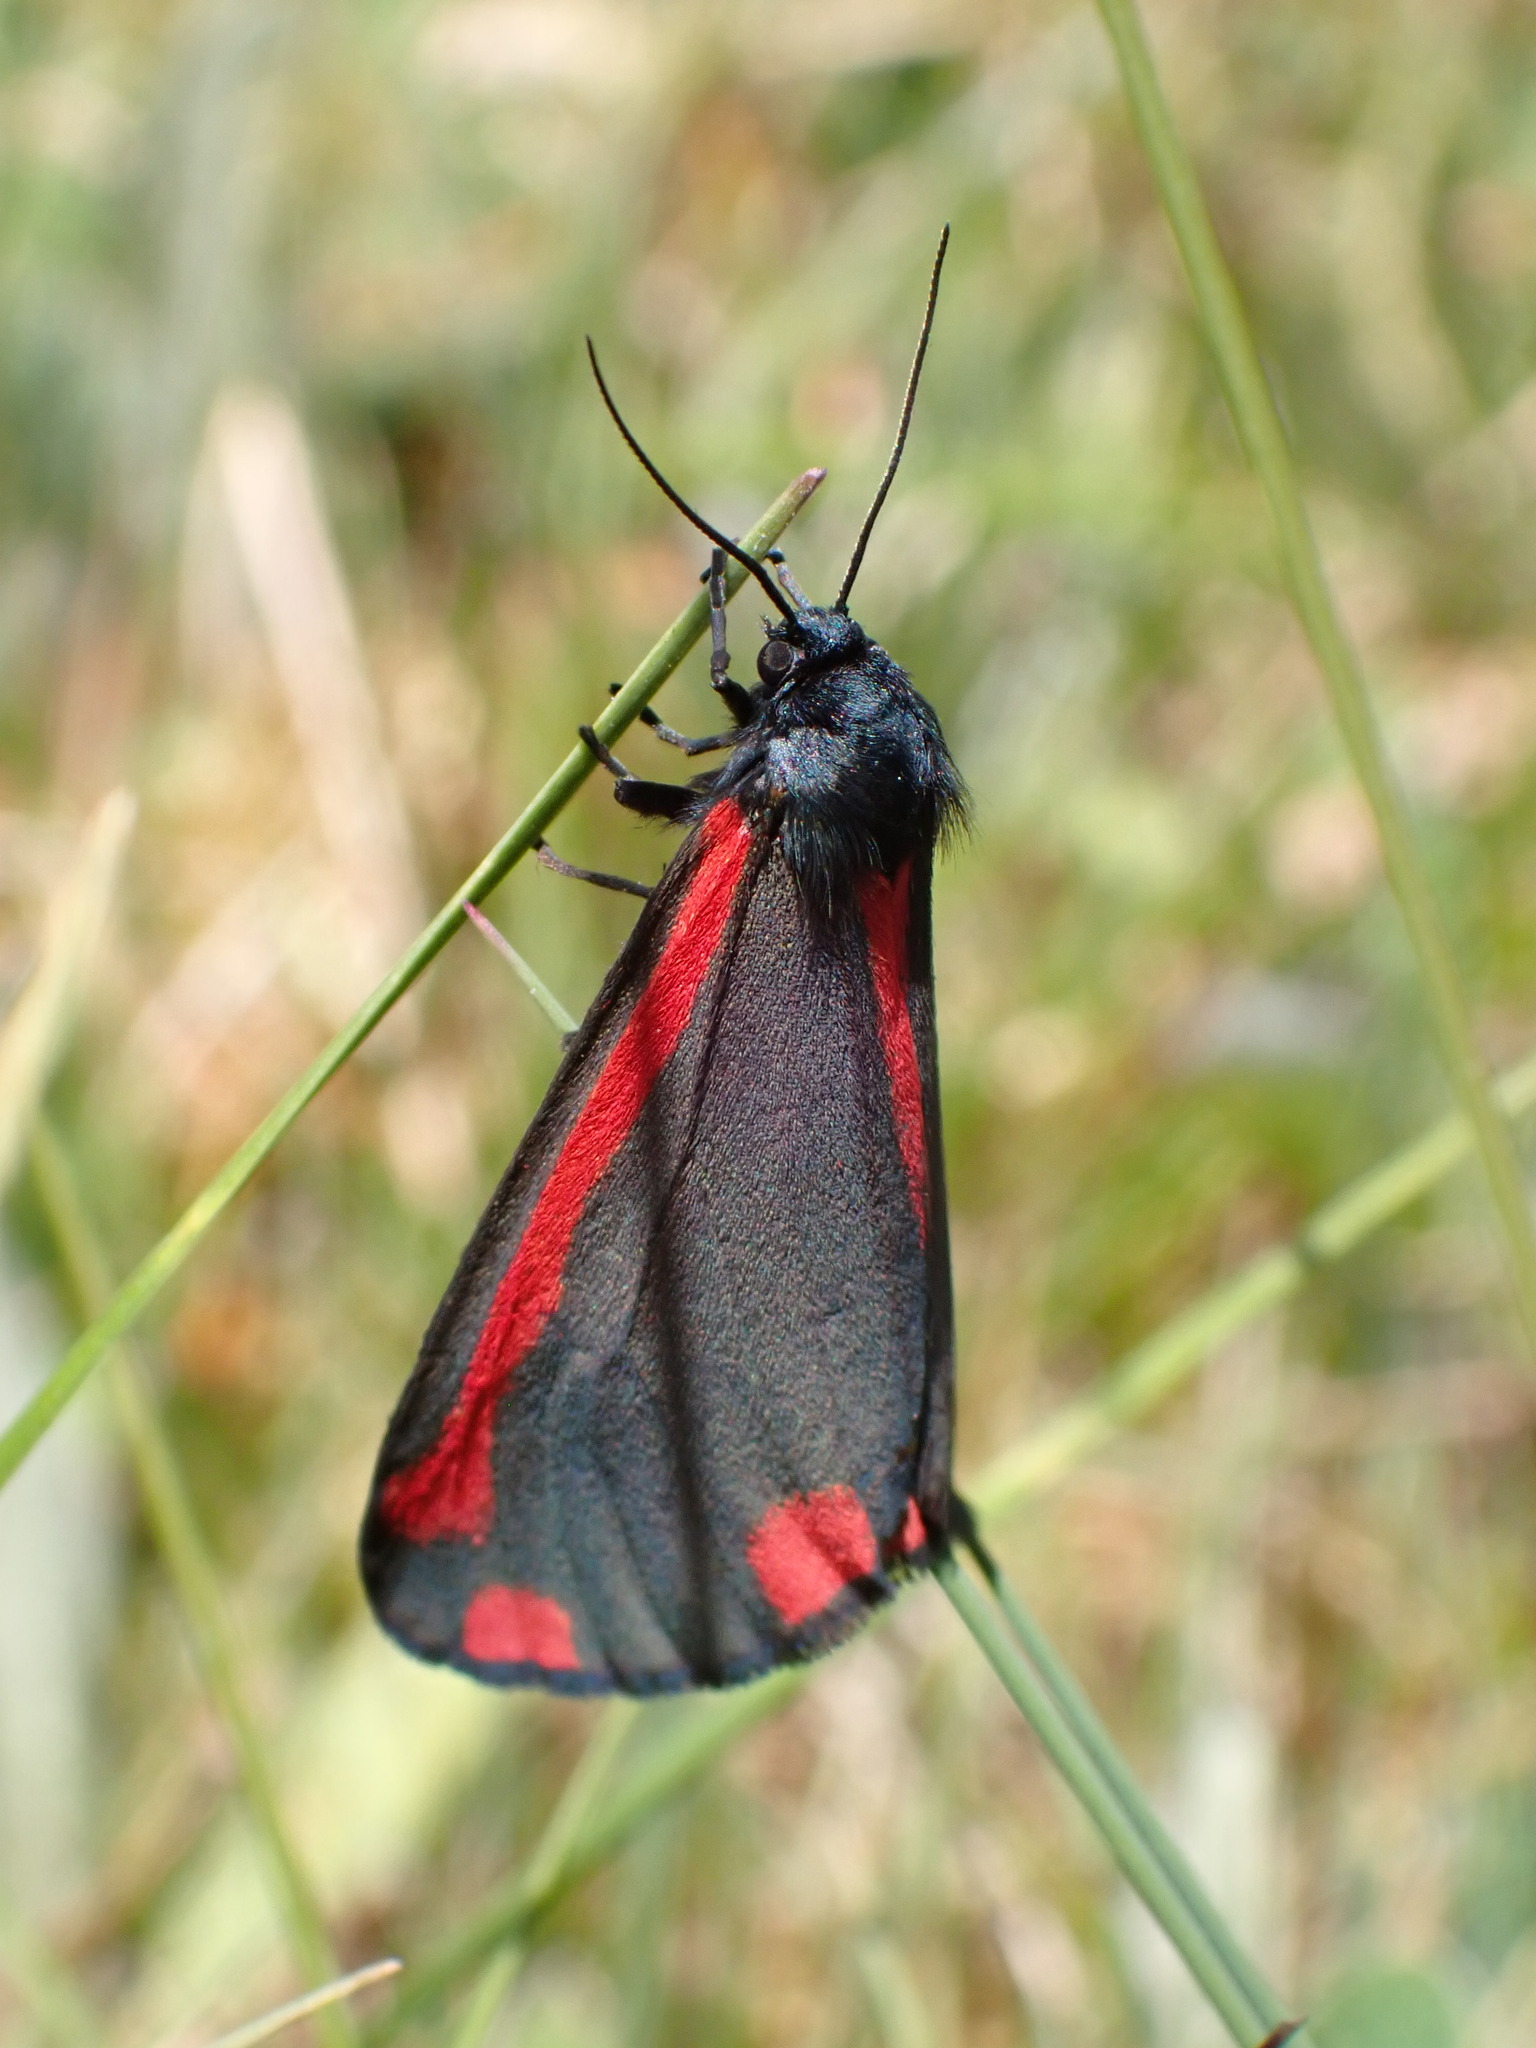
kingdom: Animalia
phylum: Arthropoda
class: Insecta
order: Lepidoptera
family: Erebidae
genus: Tyria
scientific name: Tyria jacobaeae
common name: Cinnabar
